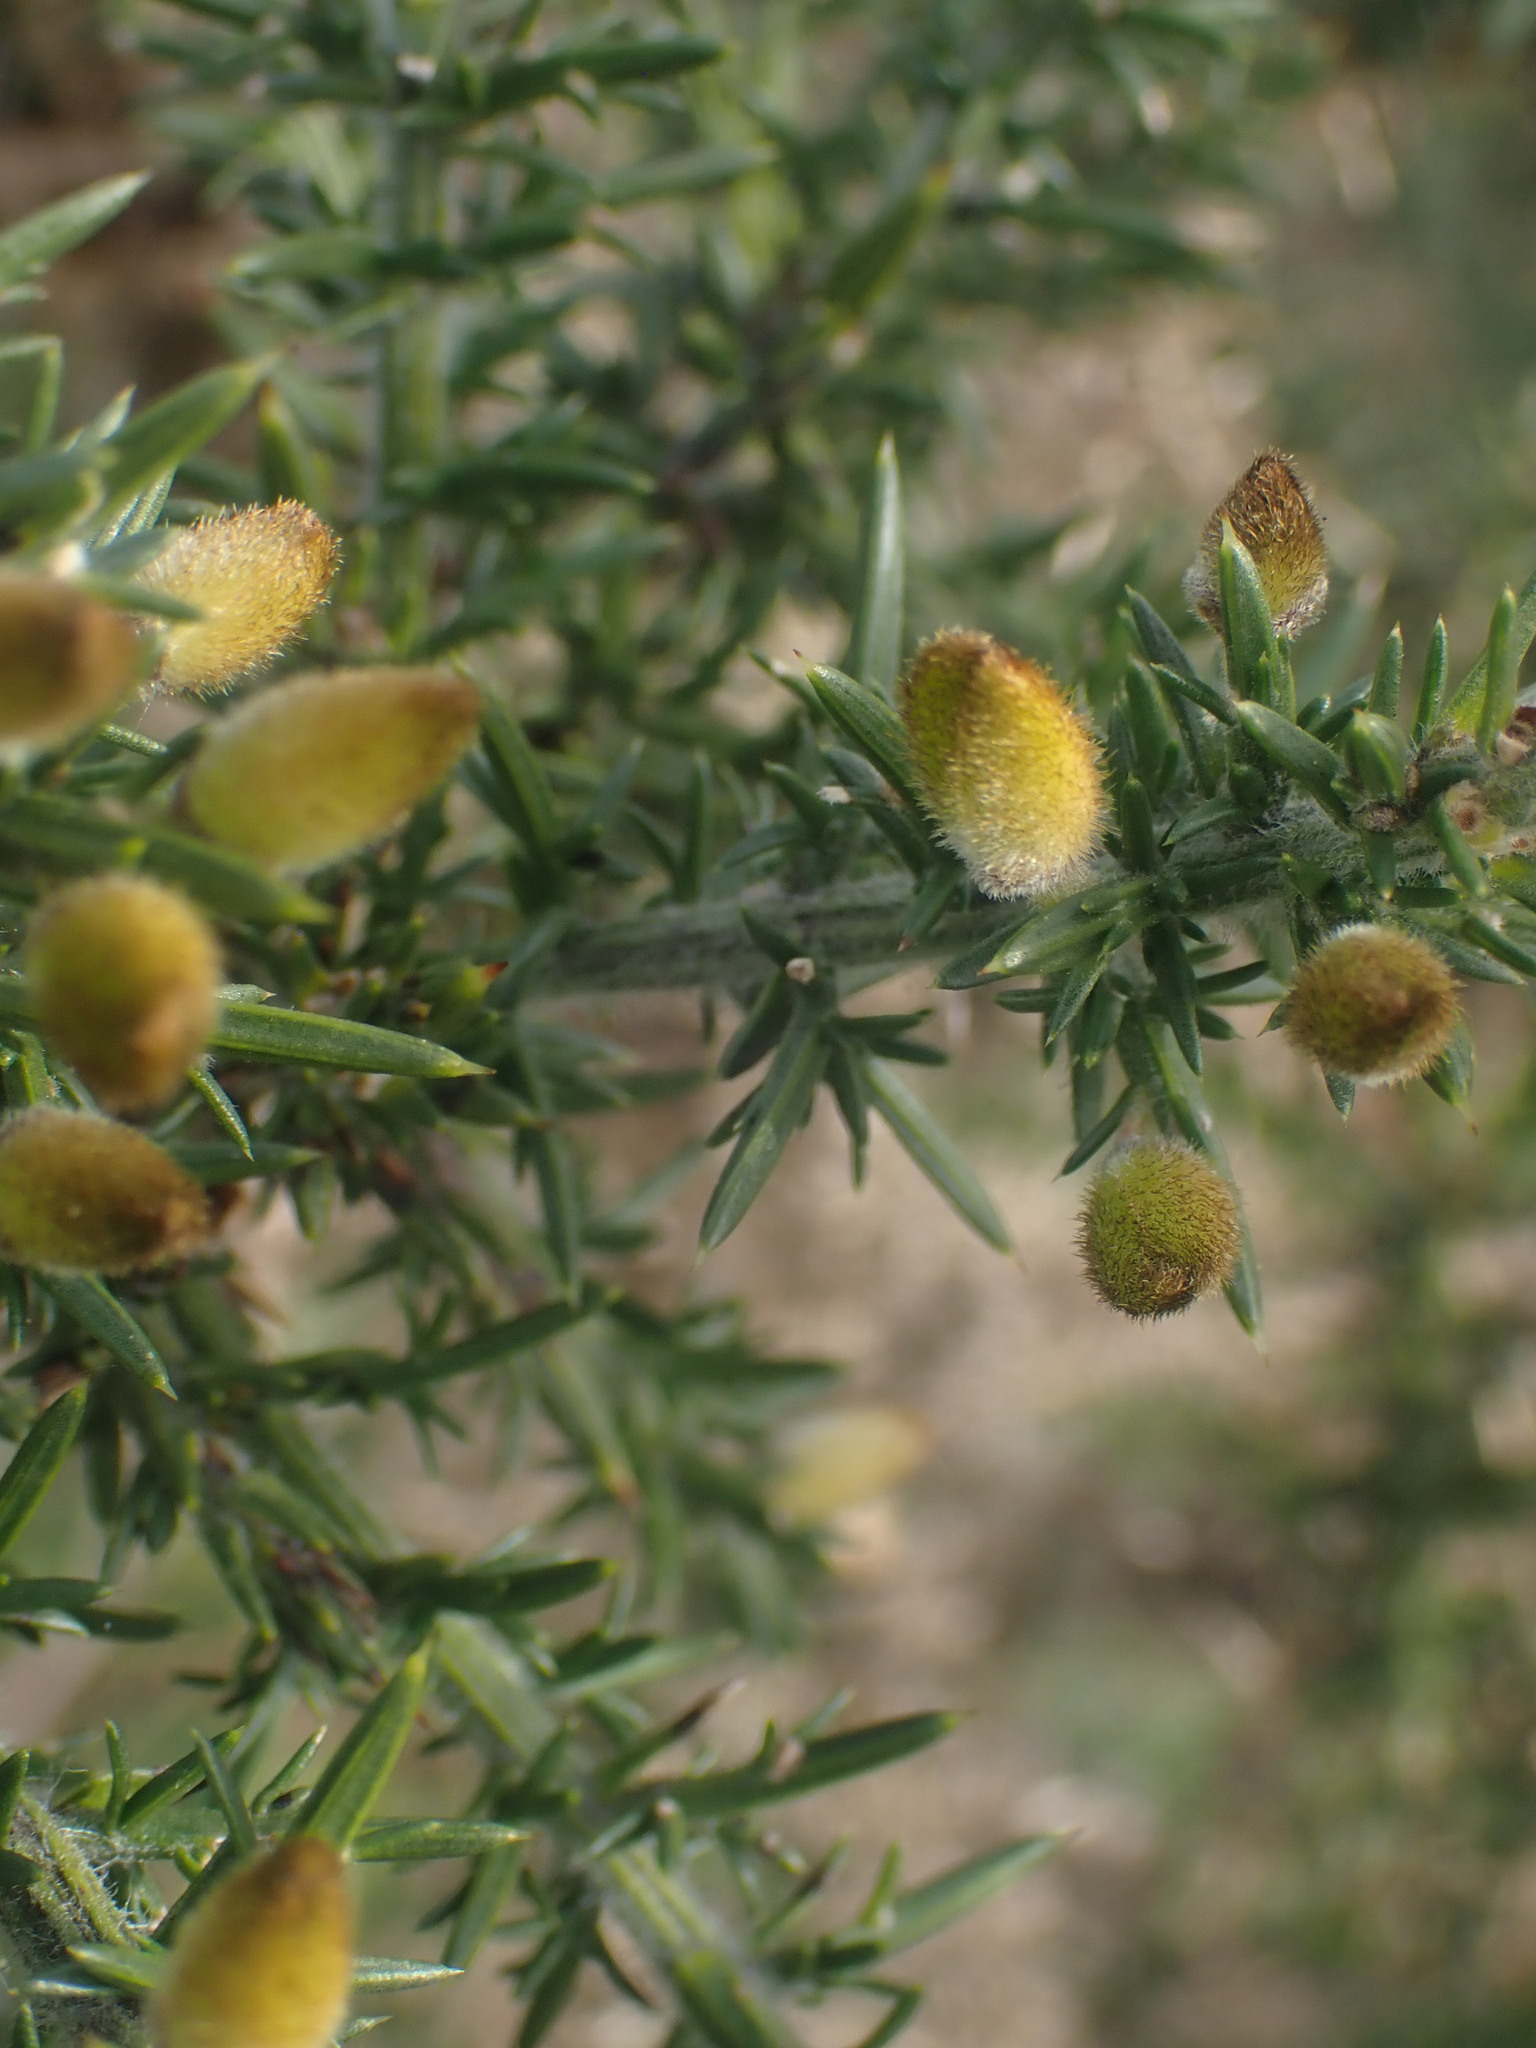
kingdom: Plantae
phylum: Tracheophyta
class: Magnoliopsida
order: Fabales
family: Fabaceae
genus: Ulex
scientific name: Ulex europaeus
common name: Common gorse
